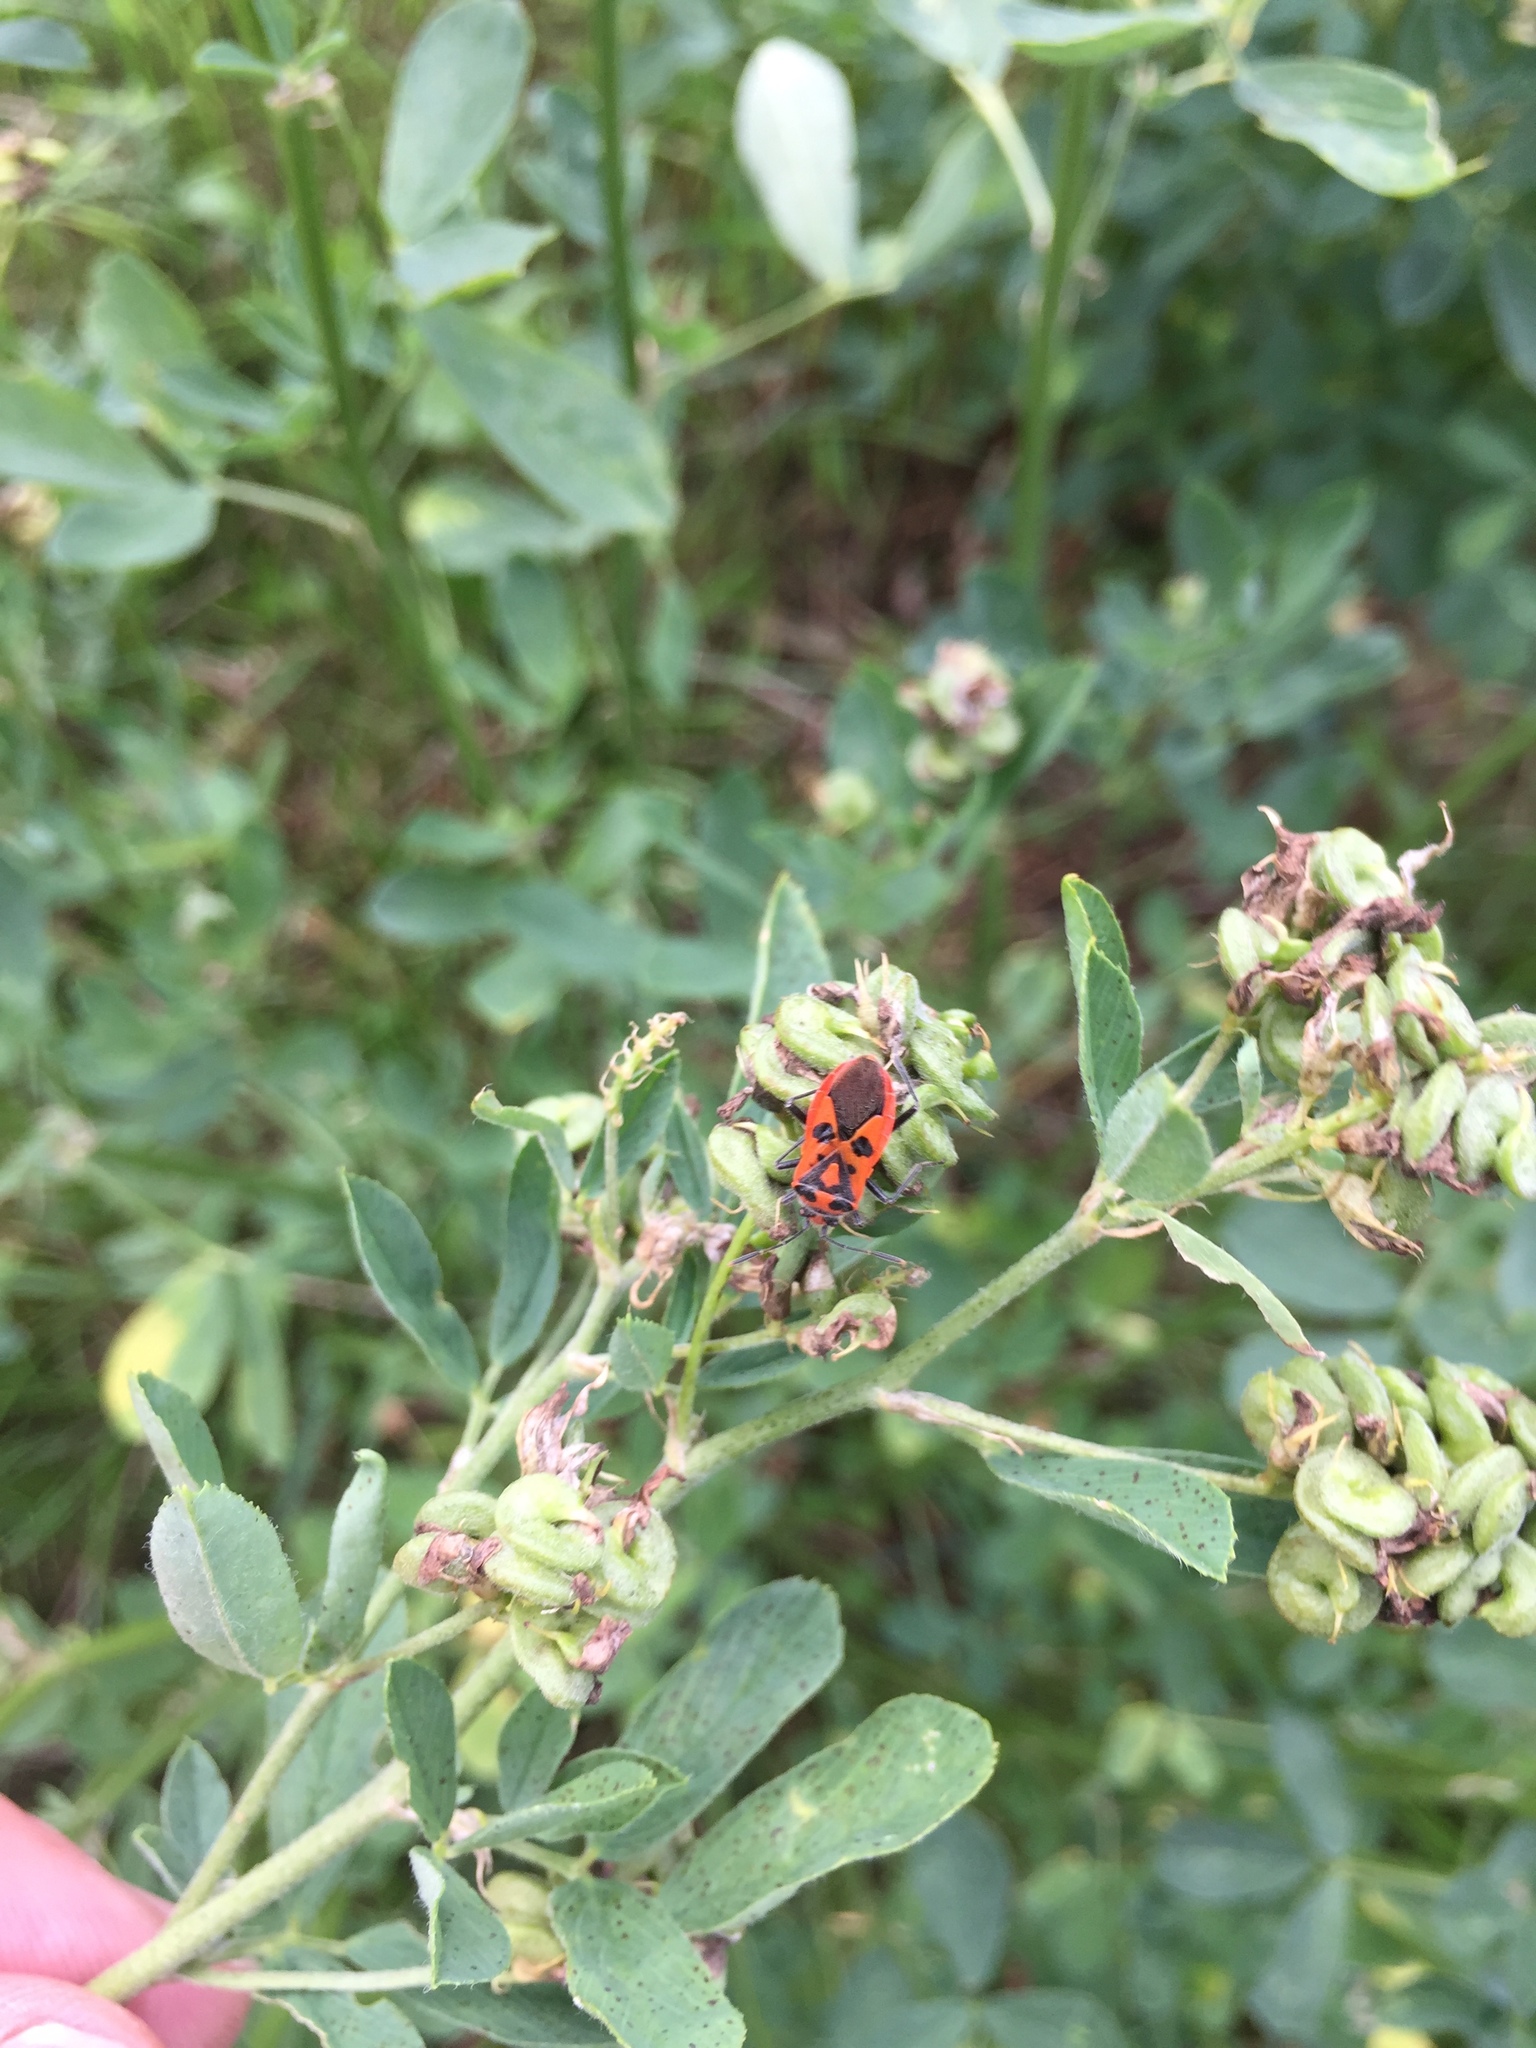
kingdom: Animalia
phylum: Arthropoda
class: Insecta
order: Hemiptera
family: Rhopalidae
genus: Corizus
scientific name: Corizus hyoscyami
